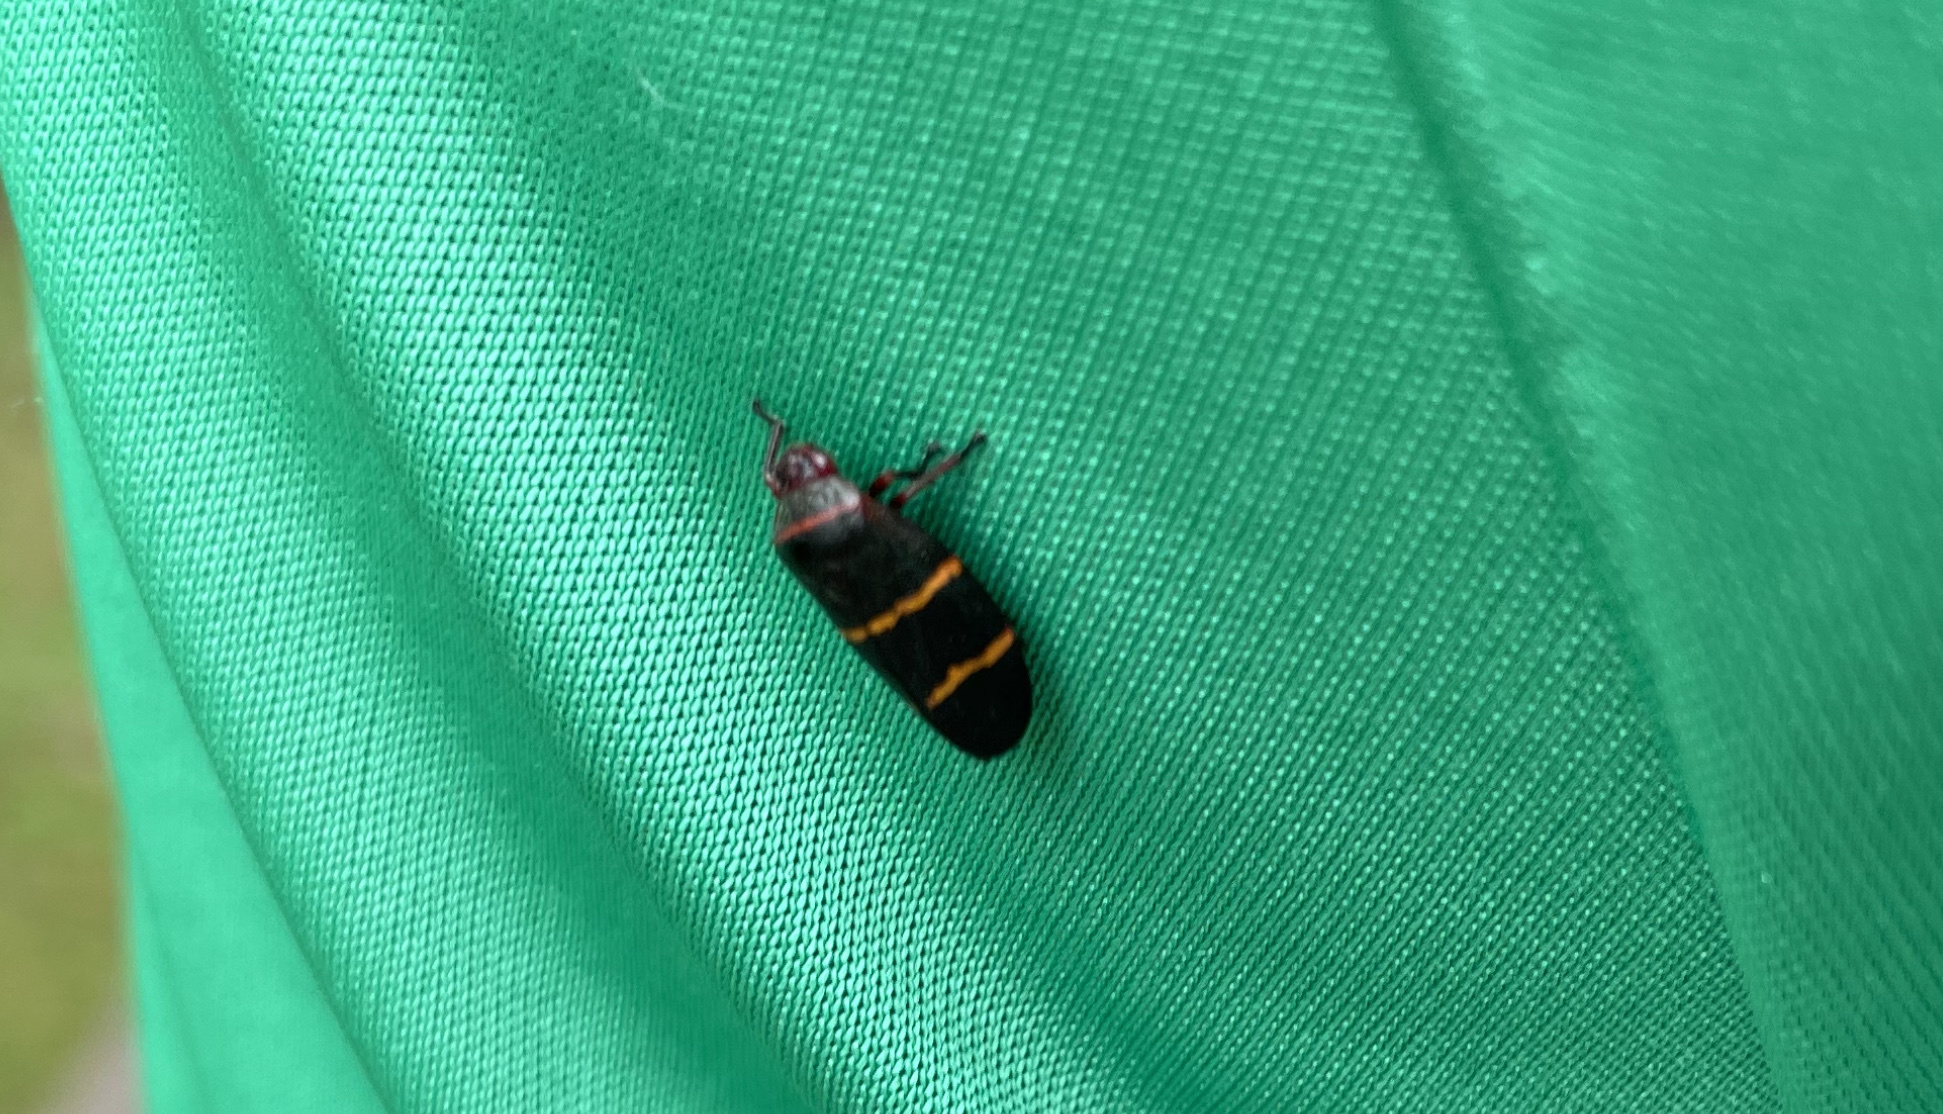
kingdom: Animalia
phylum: Arthropoda
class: Insecta
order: Hemiptera
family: Cercopidae
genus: Prosapia
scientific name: Prosapia bicincta
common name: Twolined spittlebug
